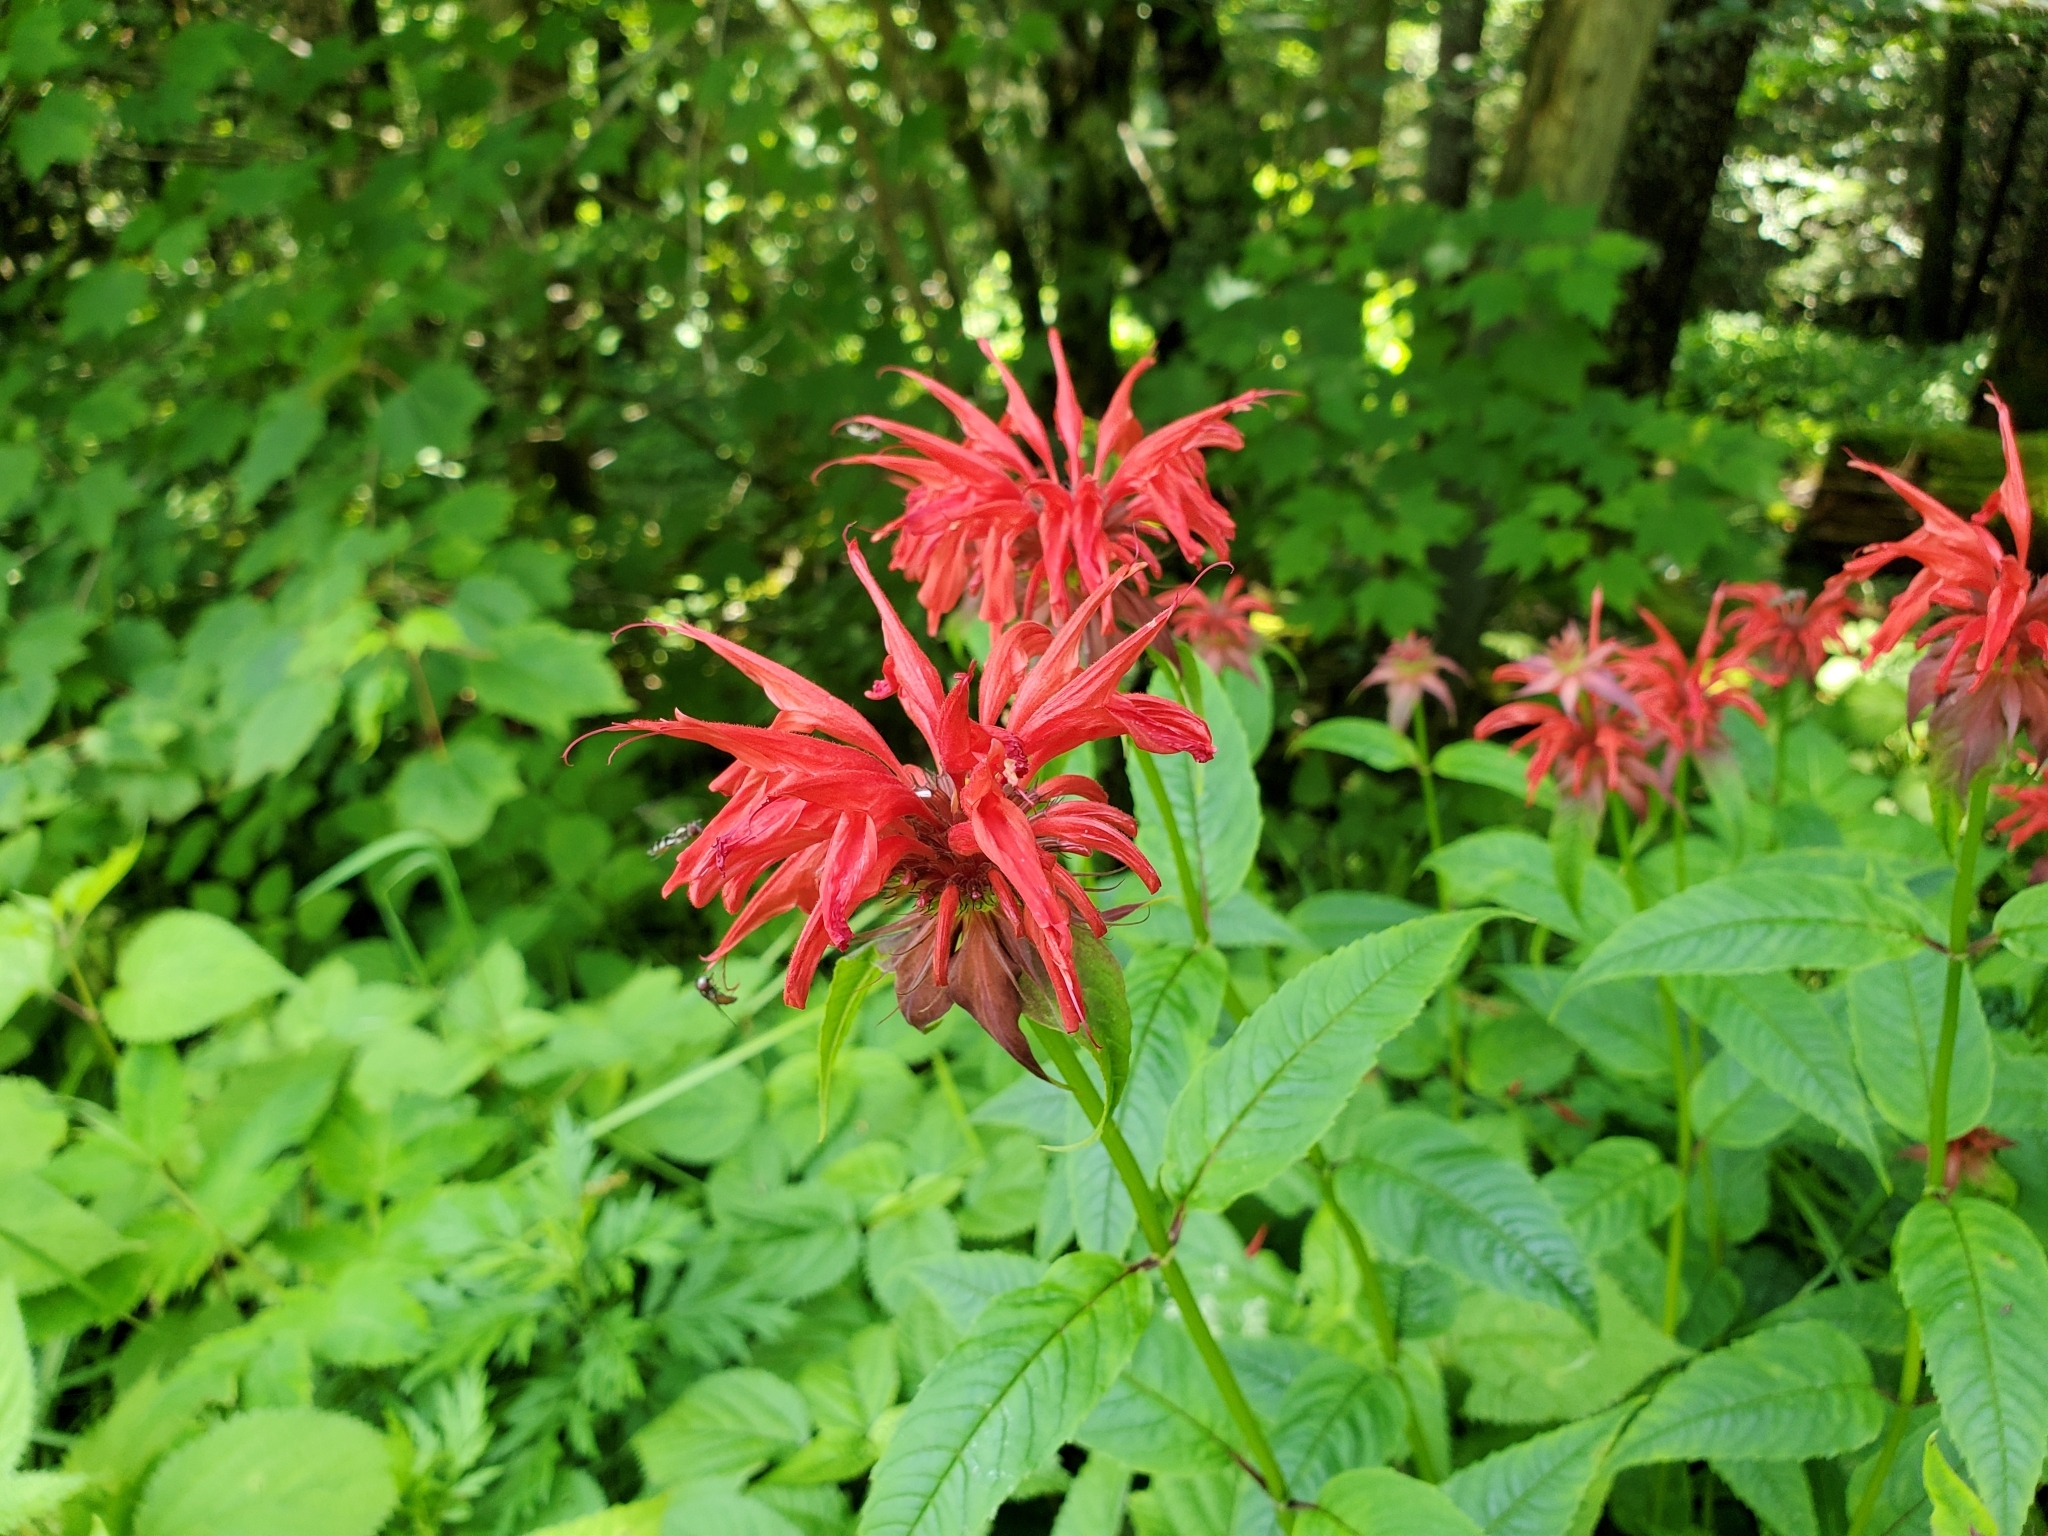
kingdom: Plantae
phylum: Tracheophyta
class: Magnoliopsida
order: Lamiales
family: Lamiaceae
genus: Monarda
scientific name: Monarda didyma
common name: Beebalm
